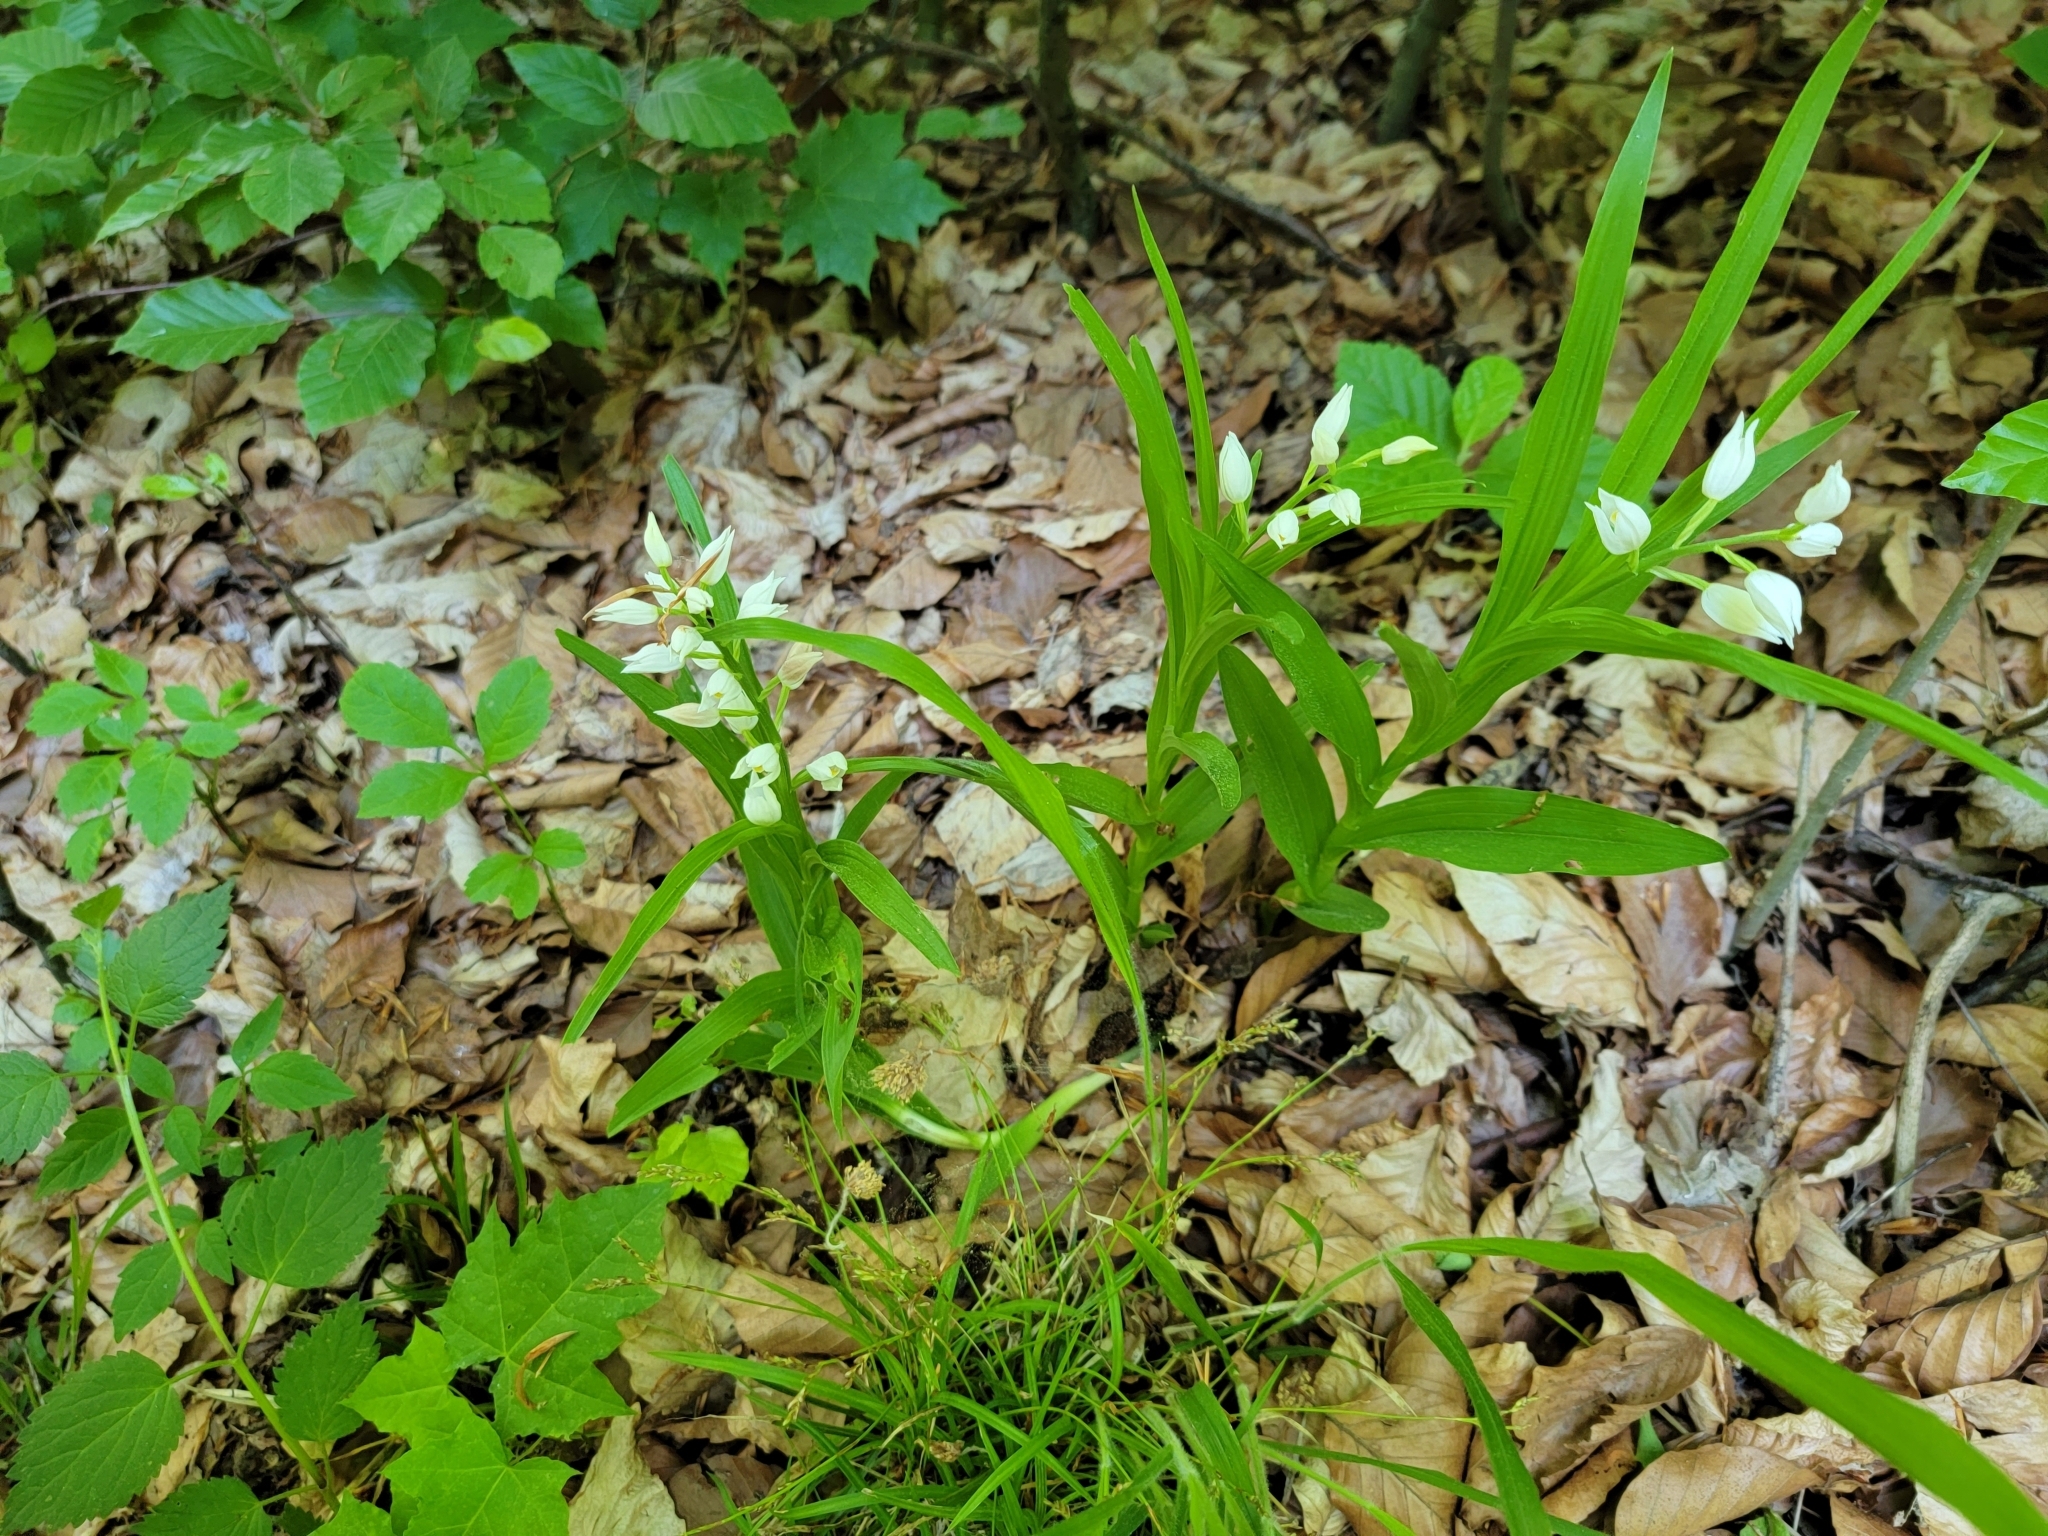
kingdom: Plantae
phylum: Tracheophyta
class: Liliopsida
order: Asparagales
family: Orchidaceae
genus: Cephalanthera
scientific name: Cephalanthera longifolia
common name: Narrow-leaved helleborine
